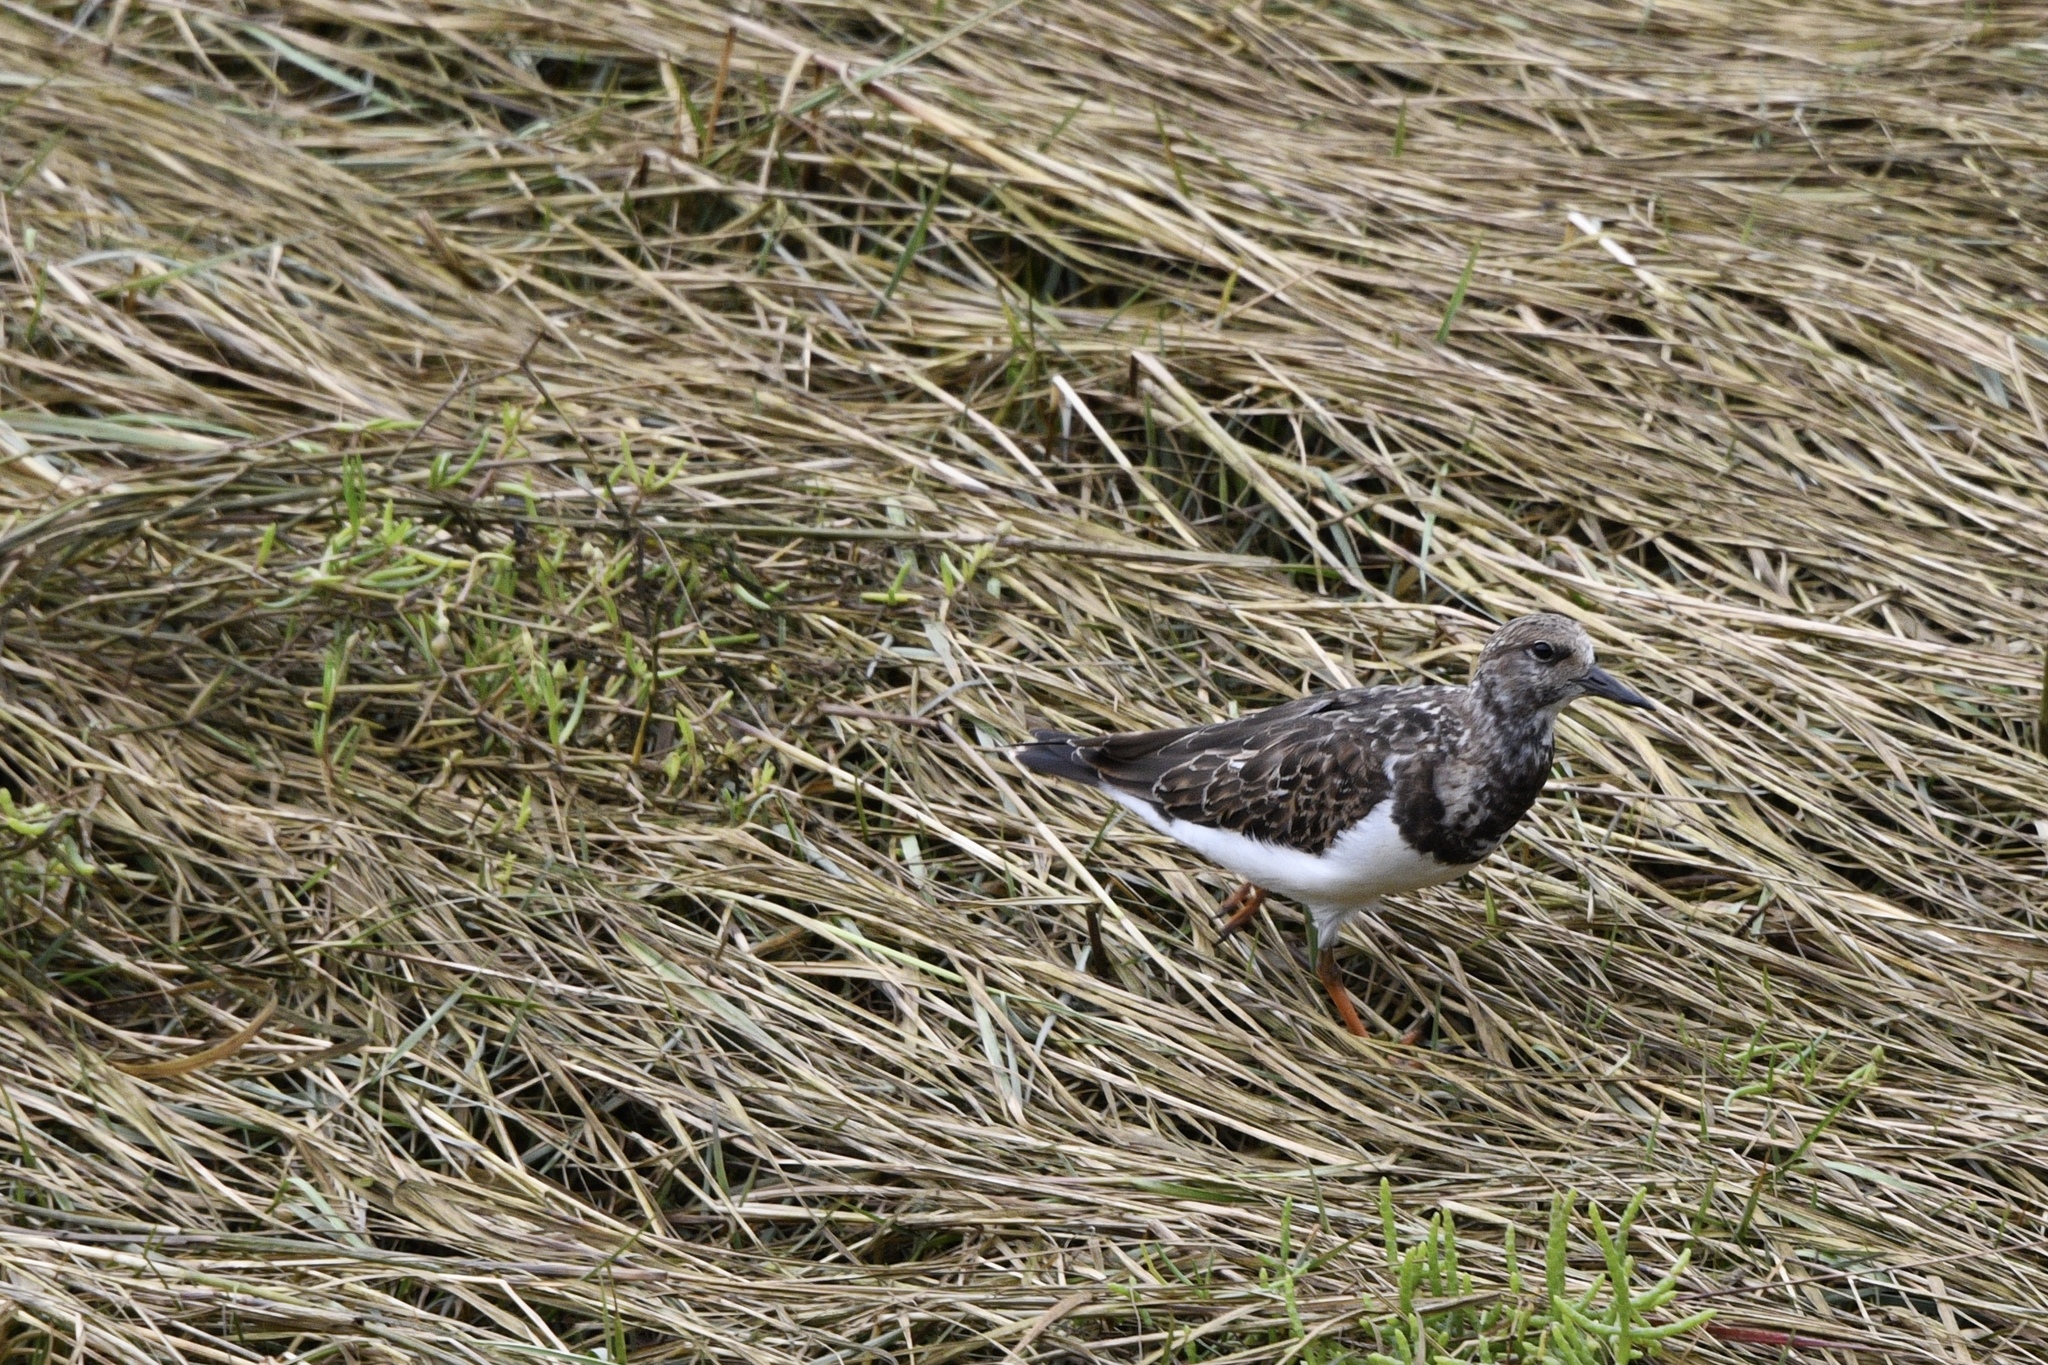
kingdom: Animalia
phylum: Chordata
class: Aves
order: Charadriiformes
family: Scolopacidae
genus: Arenaria
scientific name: Arenaria interpres
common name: Ruddy turnstone
